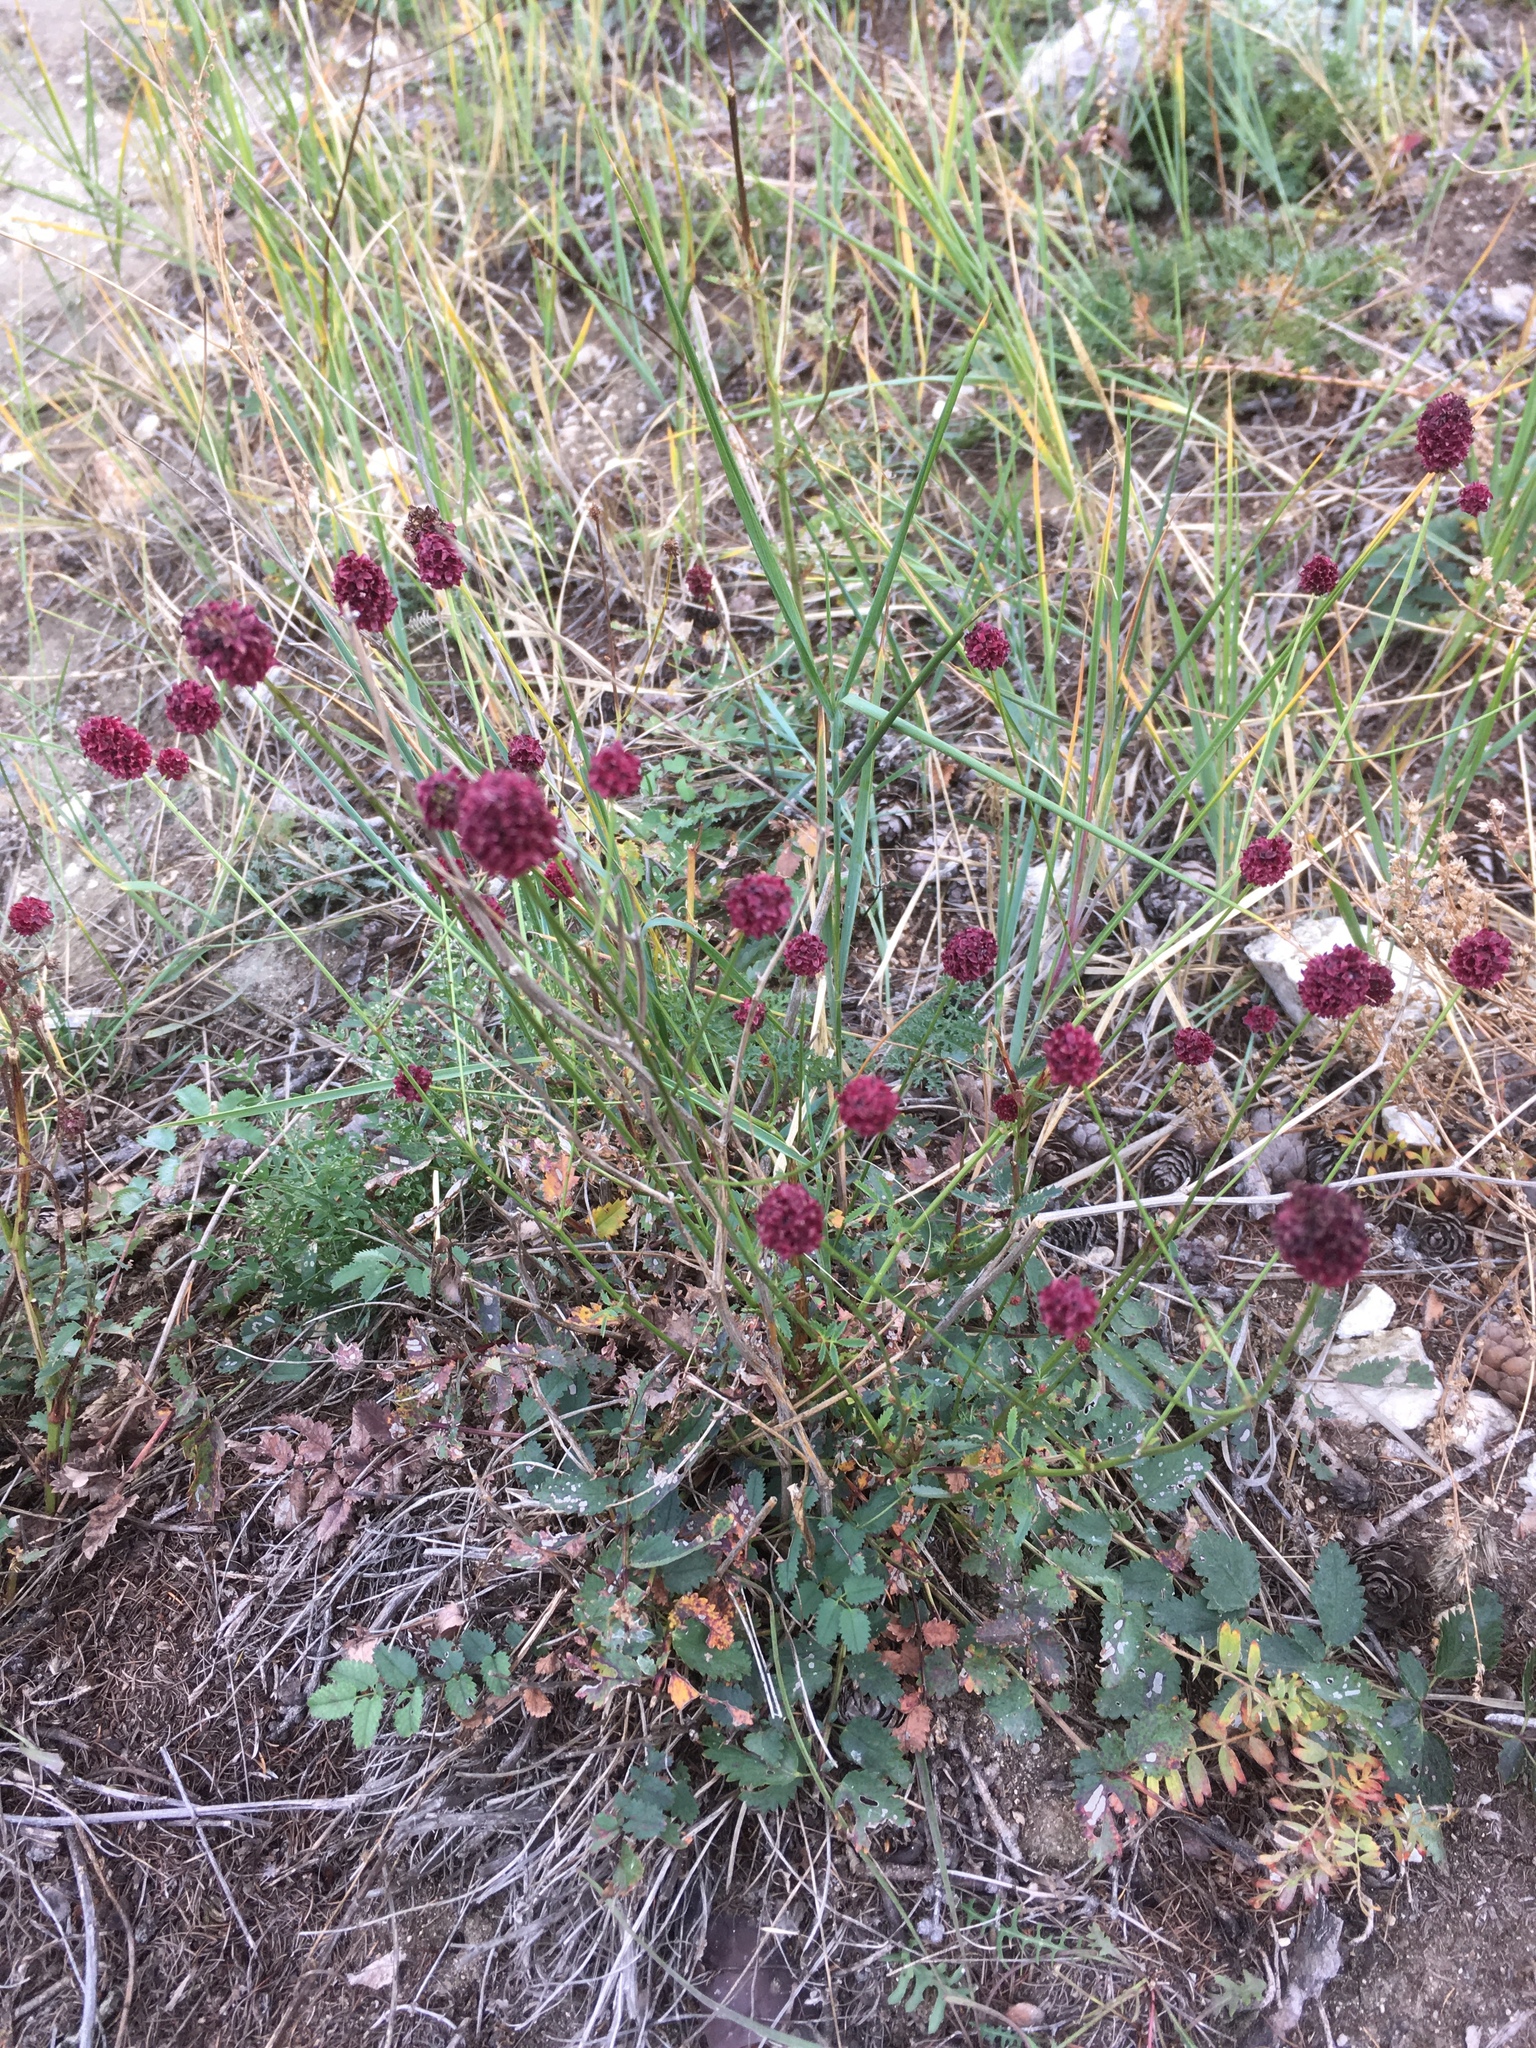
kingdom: Plantae
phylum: Tracheophyta
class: Magnoliopsida
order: Rosales
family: Rosaceae
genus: Sanguisorba
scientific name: Sanguisorba officinalis
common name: Great burnet
